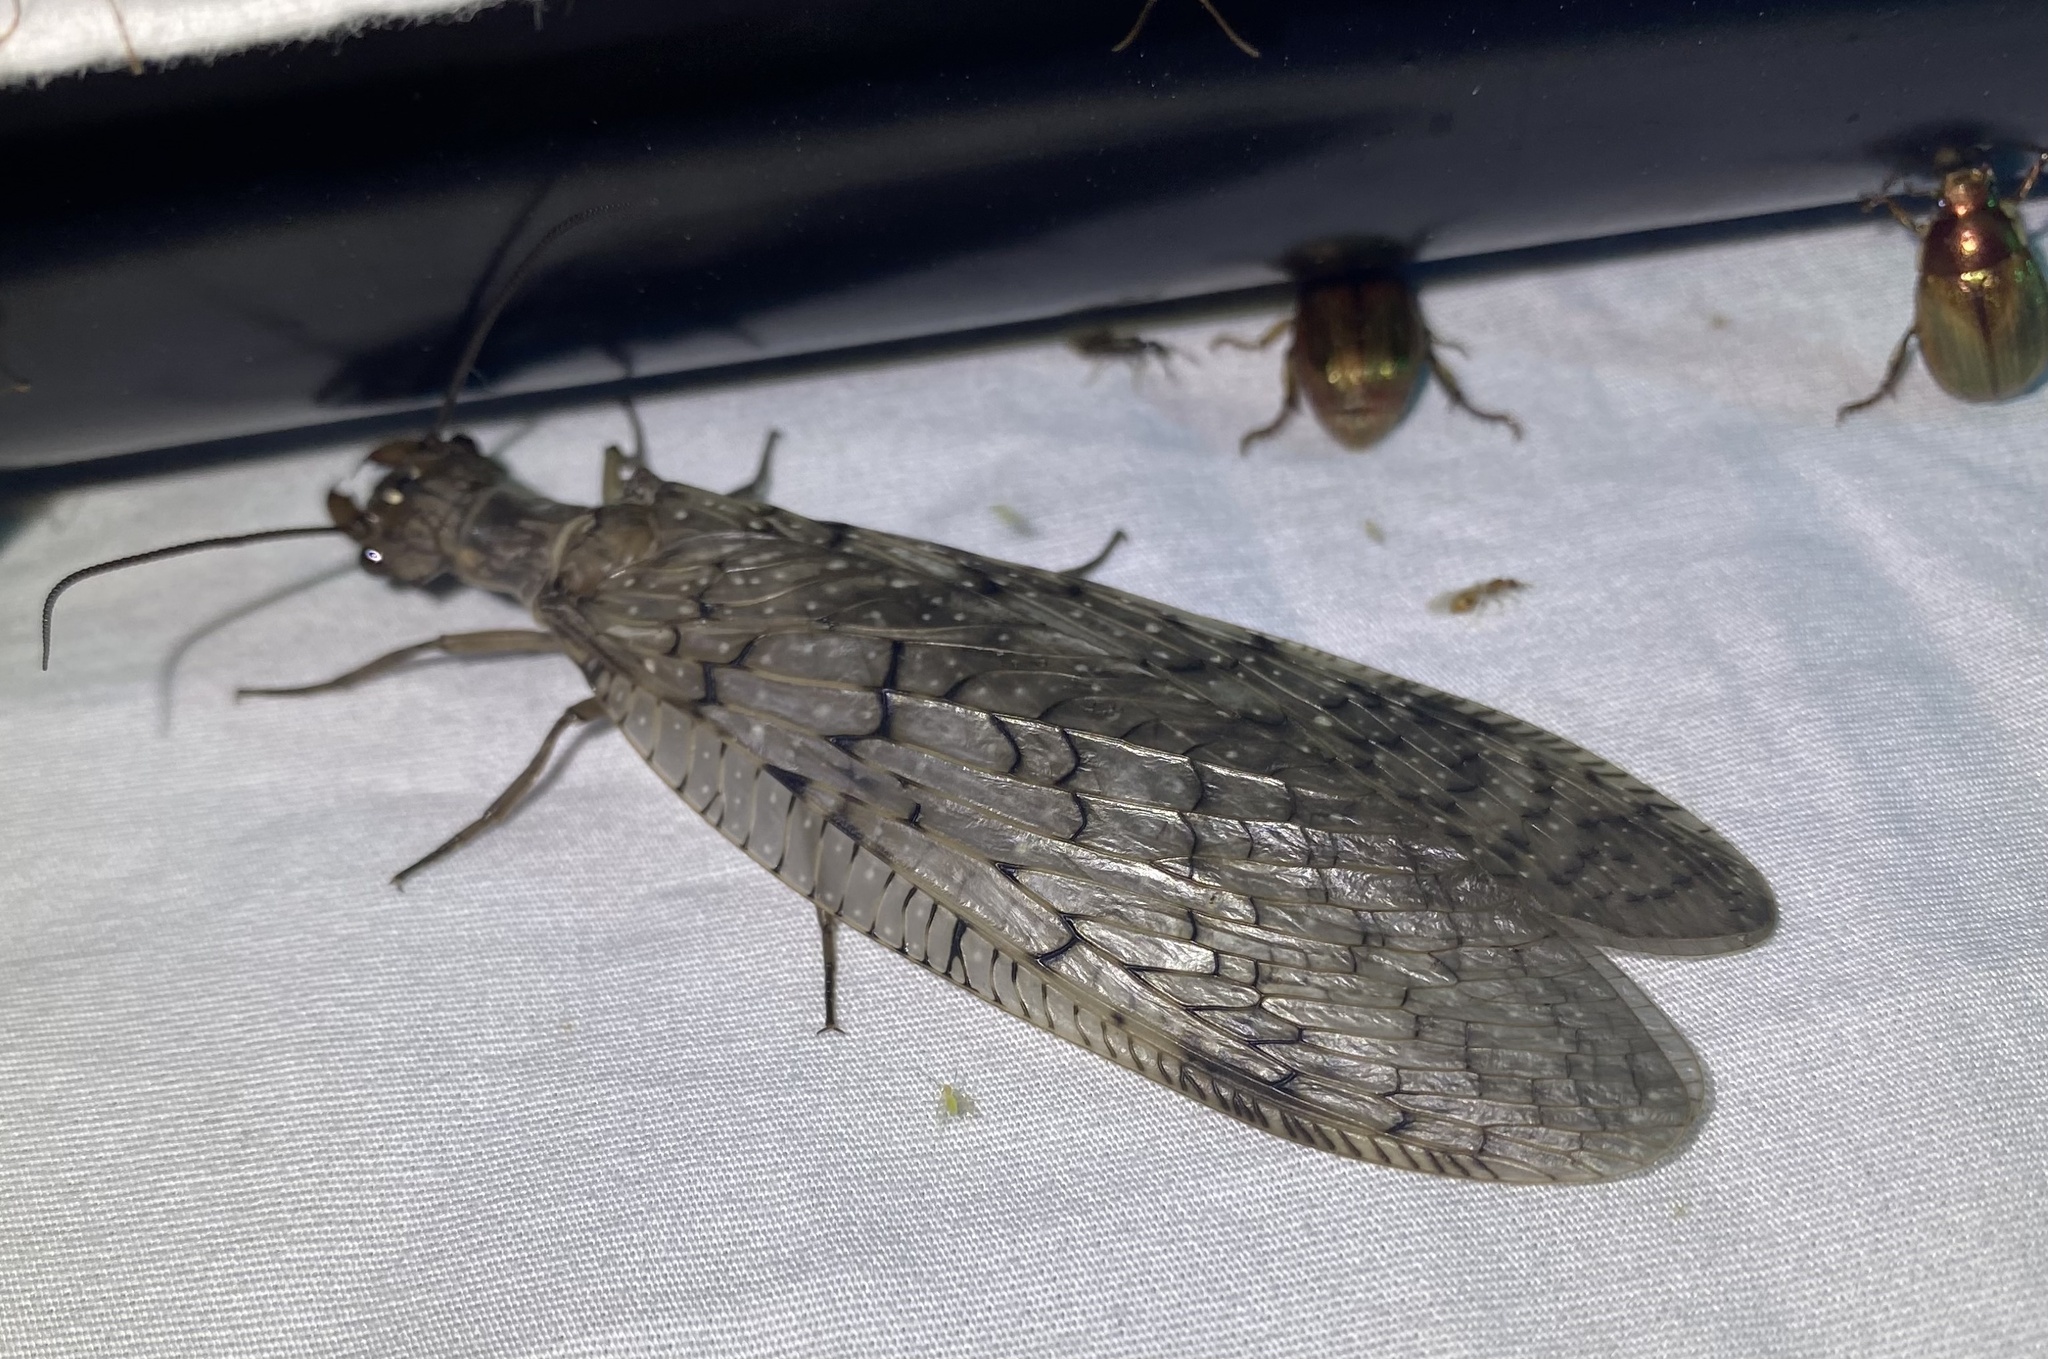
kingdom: Animalia
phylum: Arthropoda
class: Insecta
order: Megaloptera
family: Corydalidae
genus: Corydalus
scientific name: Corydalus cornutus
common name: Dobsonfly
